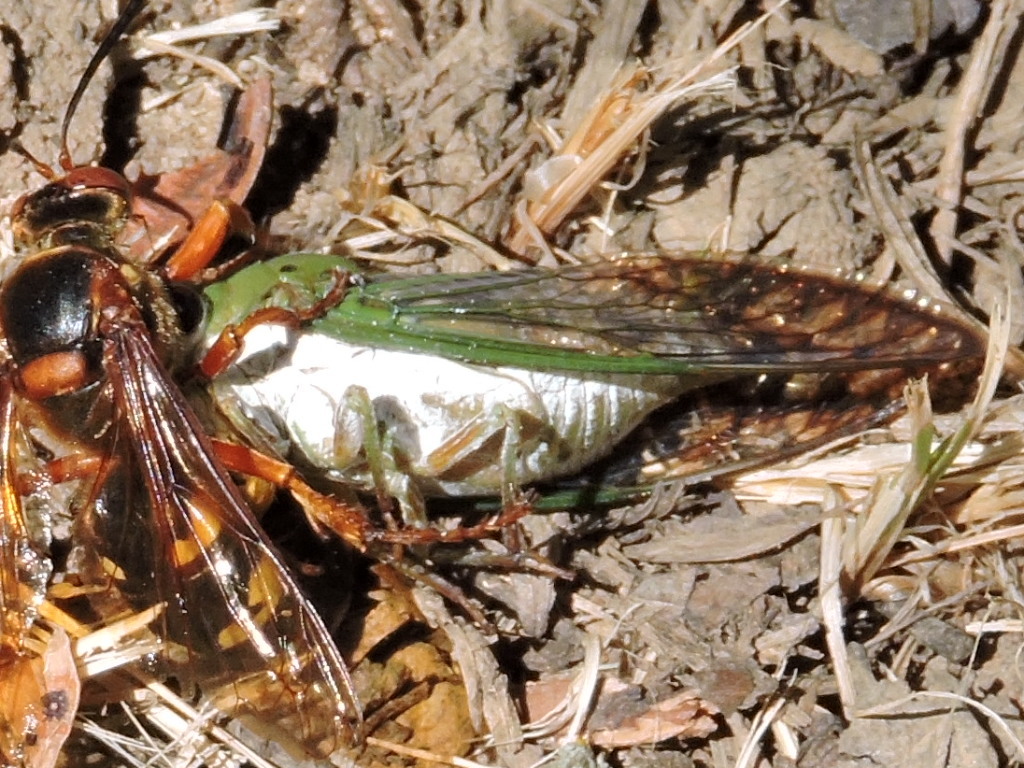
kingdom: Animalia
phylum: Arthropoda
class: Insecta
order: Hemiptera
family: Cicadidae
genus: Neotibicen
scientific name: Neotibicen superbus
